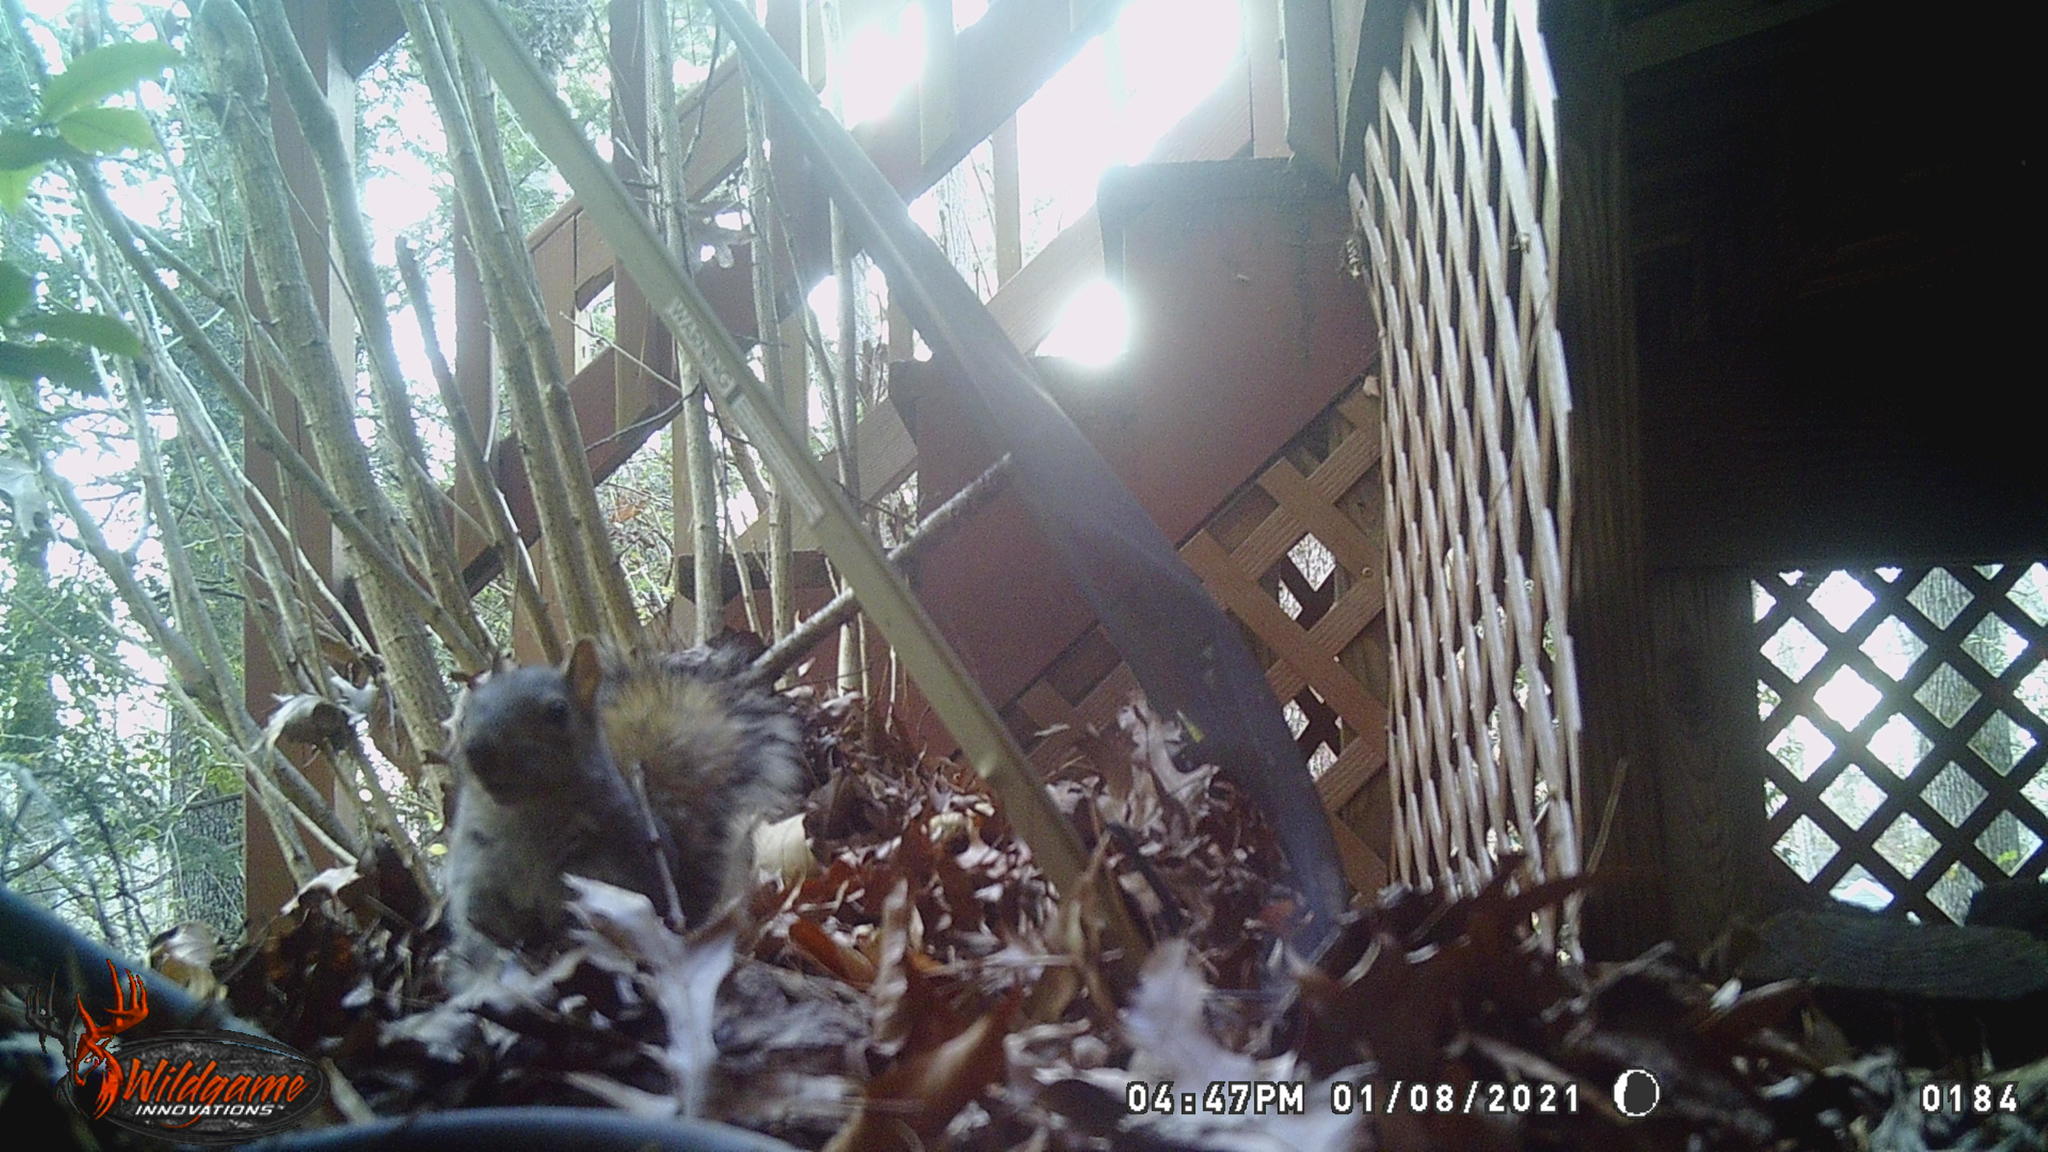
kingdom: Animalia
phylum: Chordata
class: Mammalia
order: Rodentia
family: Sciuridae
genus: Sciurus
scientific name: Sciurus carolinensis
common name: Eastern gray squirrel
